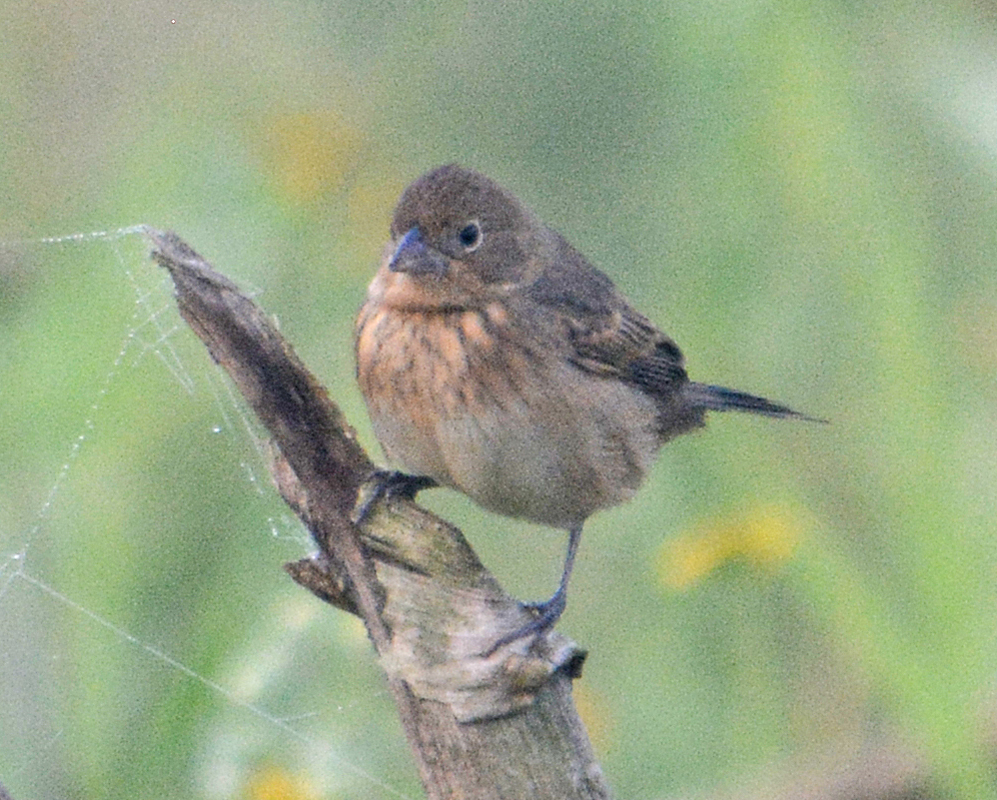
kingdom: Animalia
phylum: Chordata
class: Aves
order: Passeriformes
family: Thraupidae
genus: Volatinia
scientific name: Volatinia jacarina
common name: Blue-black grassquit
